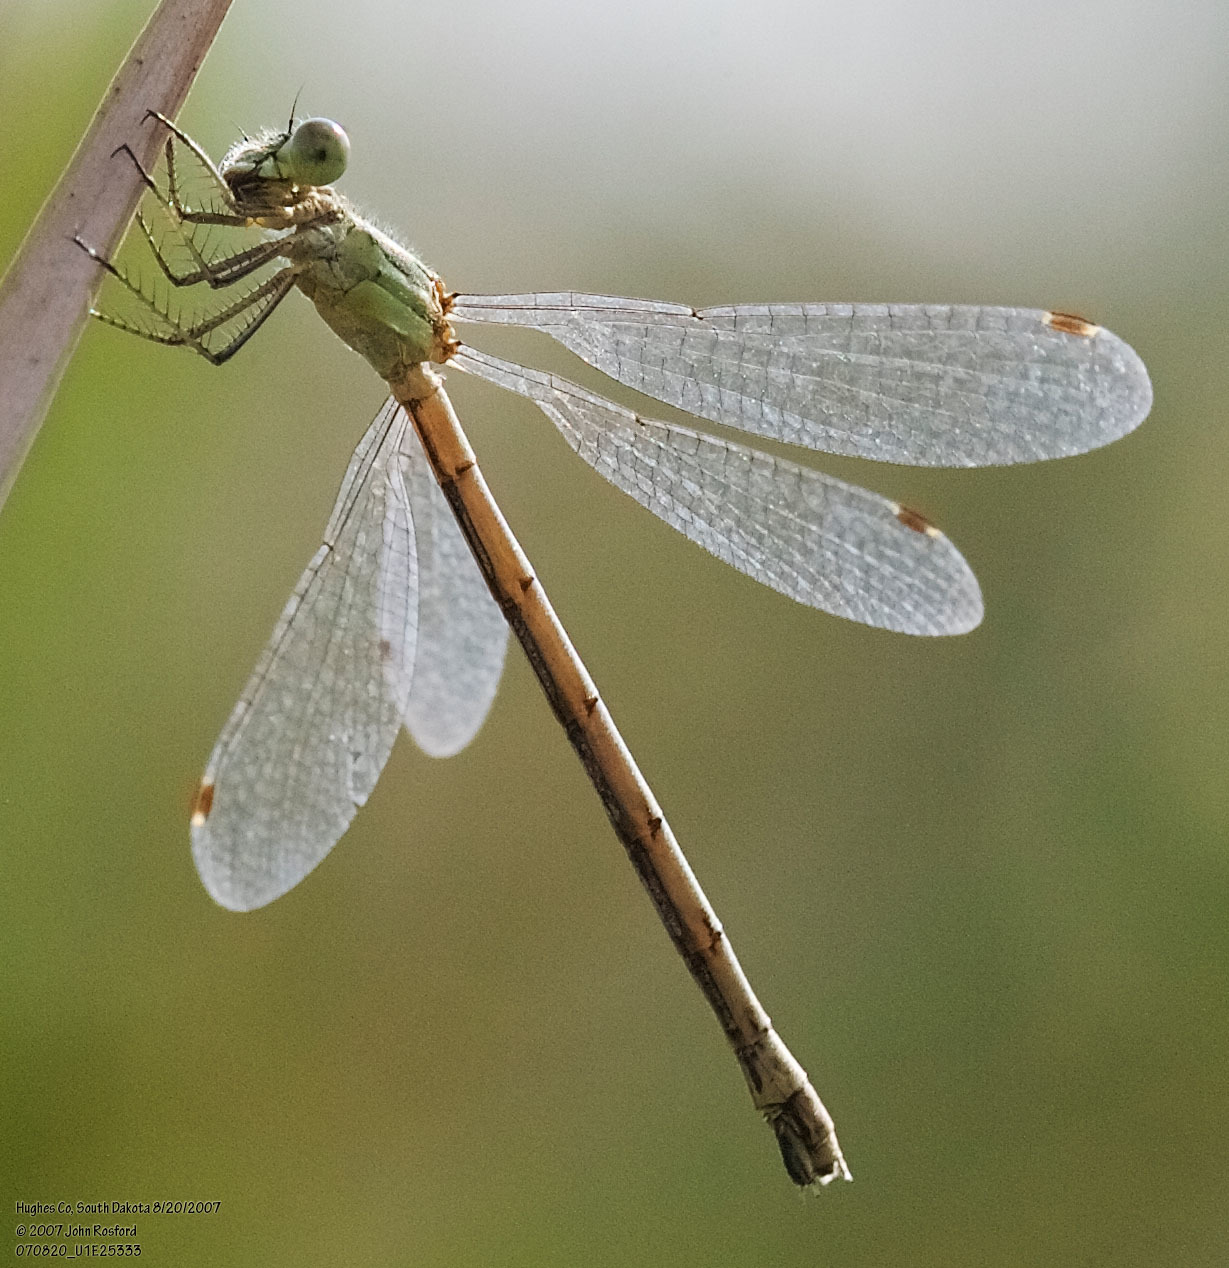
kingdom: Animalia
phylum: Arthropoda
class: Insecta
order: Odonata
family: Lestidae
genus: Lestes
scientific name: Lestes unguiculatus
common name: Lyre-tipped spreadwing
